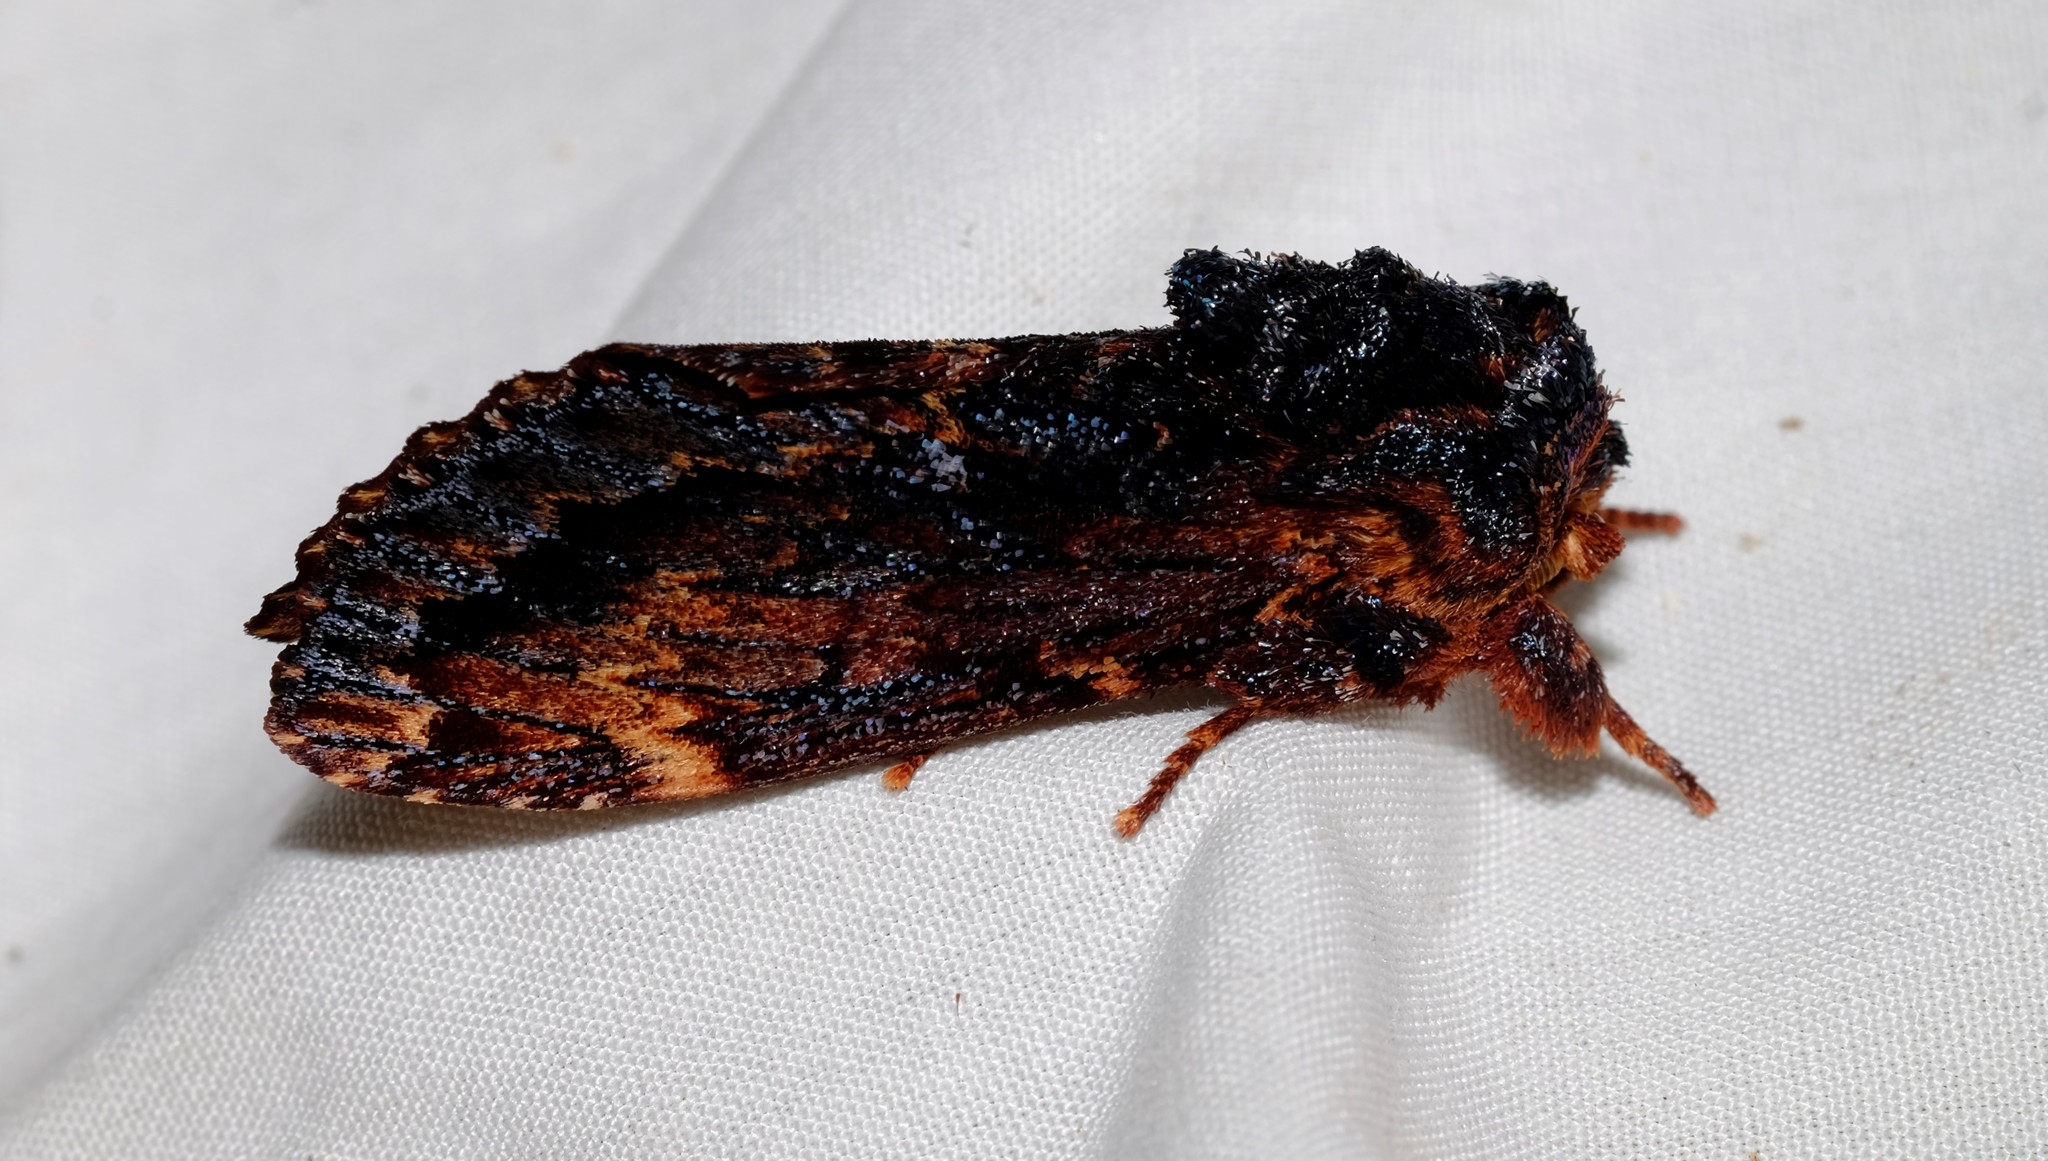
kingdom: Animalia
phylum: Arthropoda
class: Insecta
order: Lepidoptera
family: Notodontidae
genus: Sorama
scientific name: Sorama bicolor
